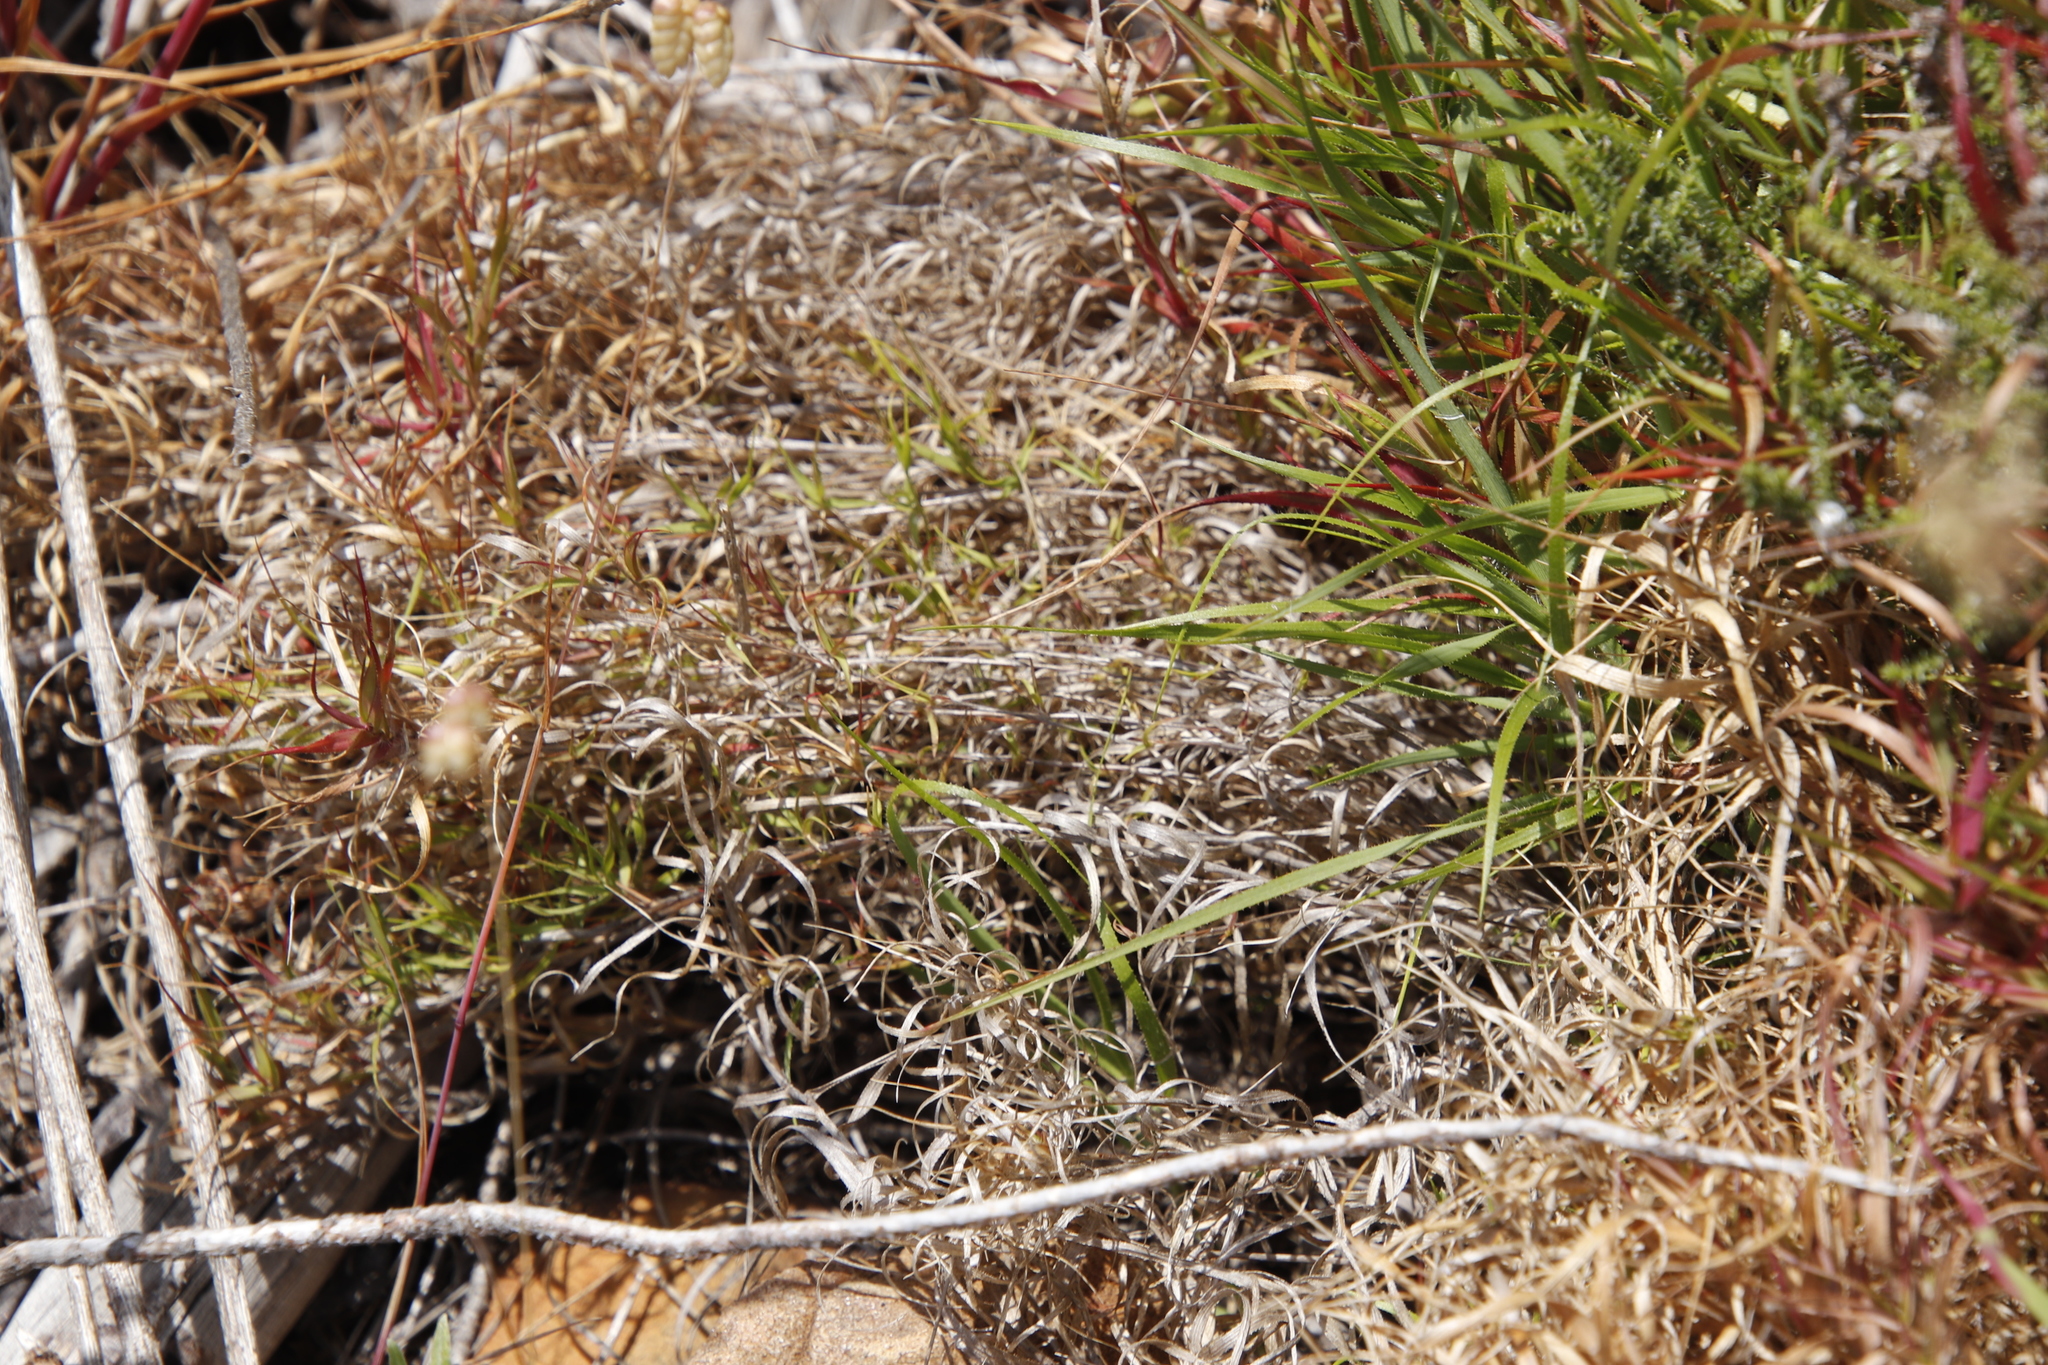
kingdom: Plantae
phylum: Tracheophyta
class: Liliopsida
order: Poales
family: Poaceae
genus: Pentameris
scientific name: Pentameris densifolia
